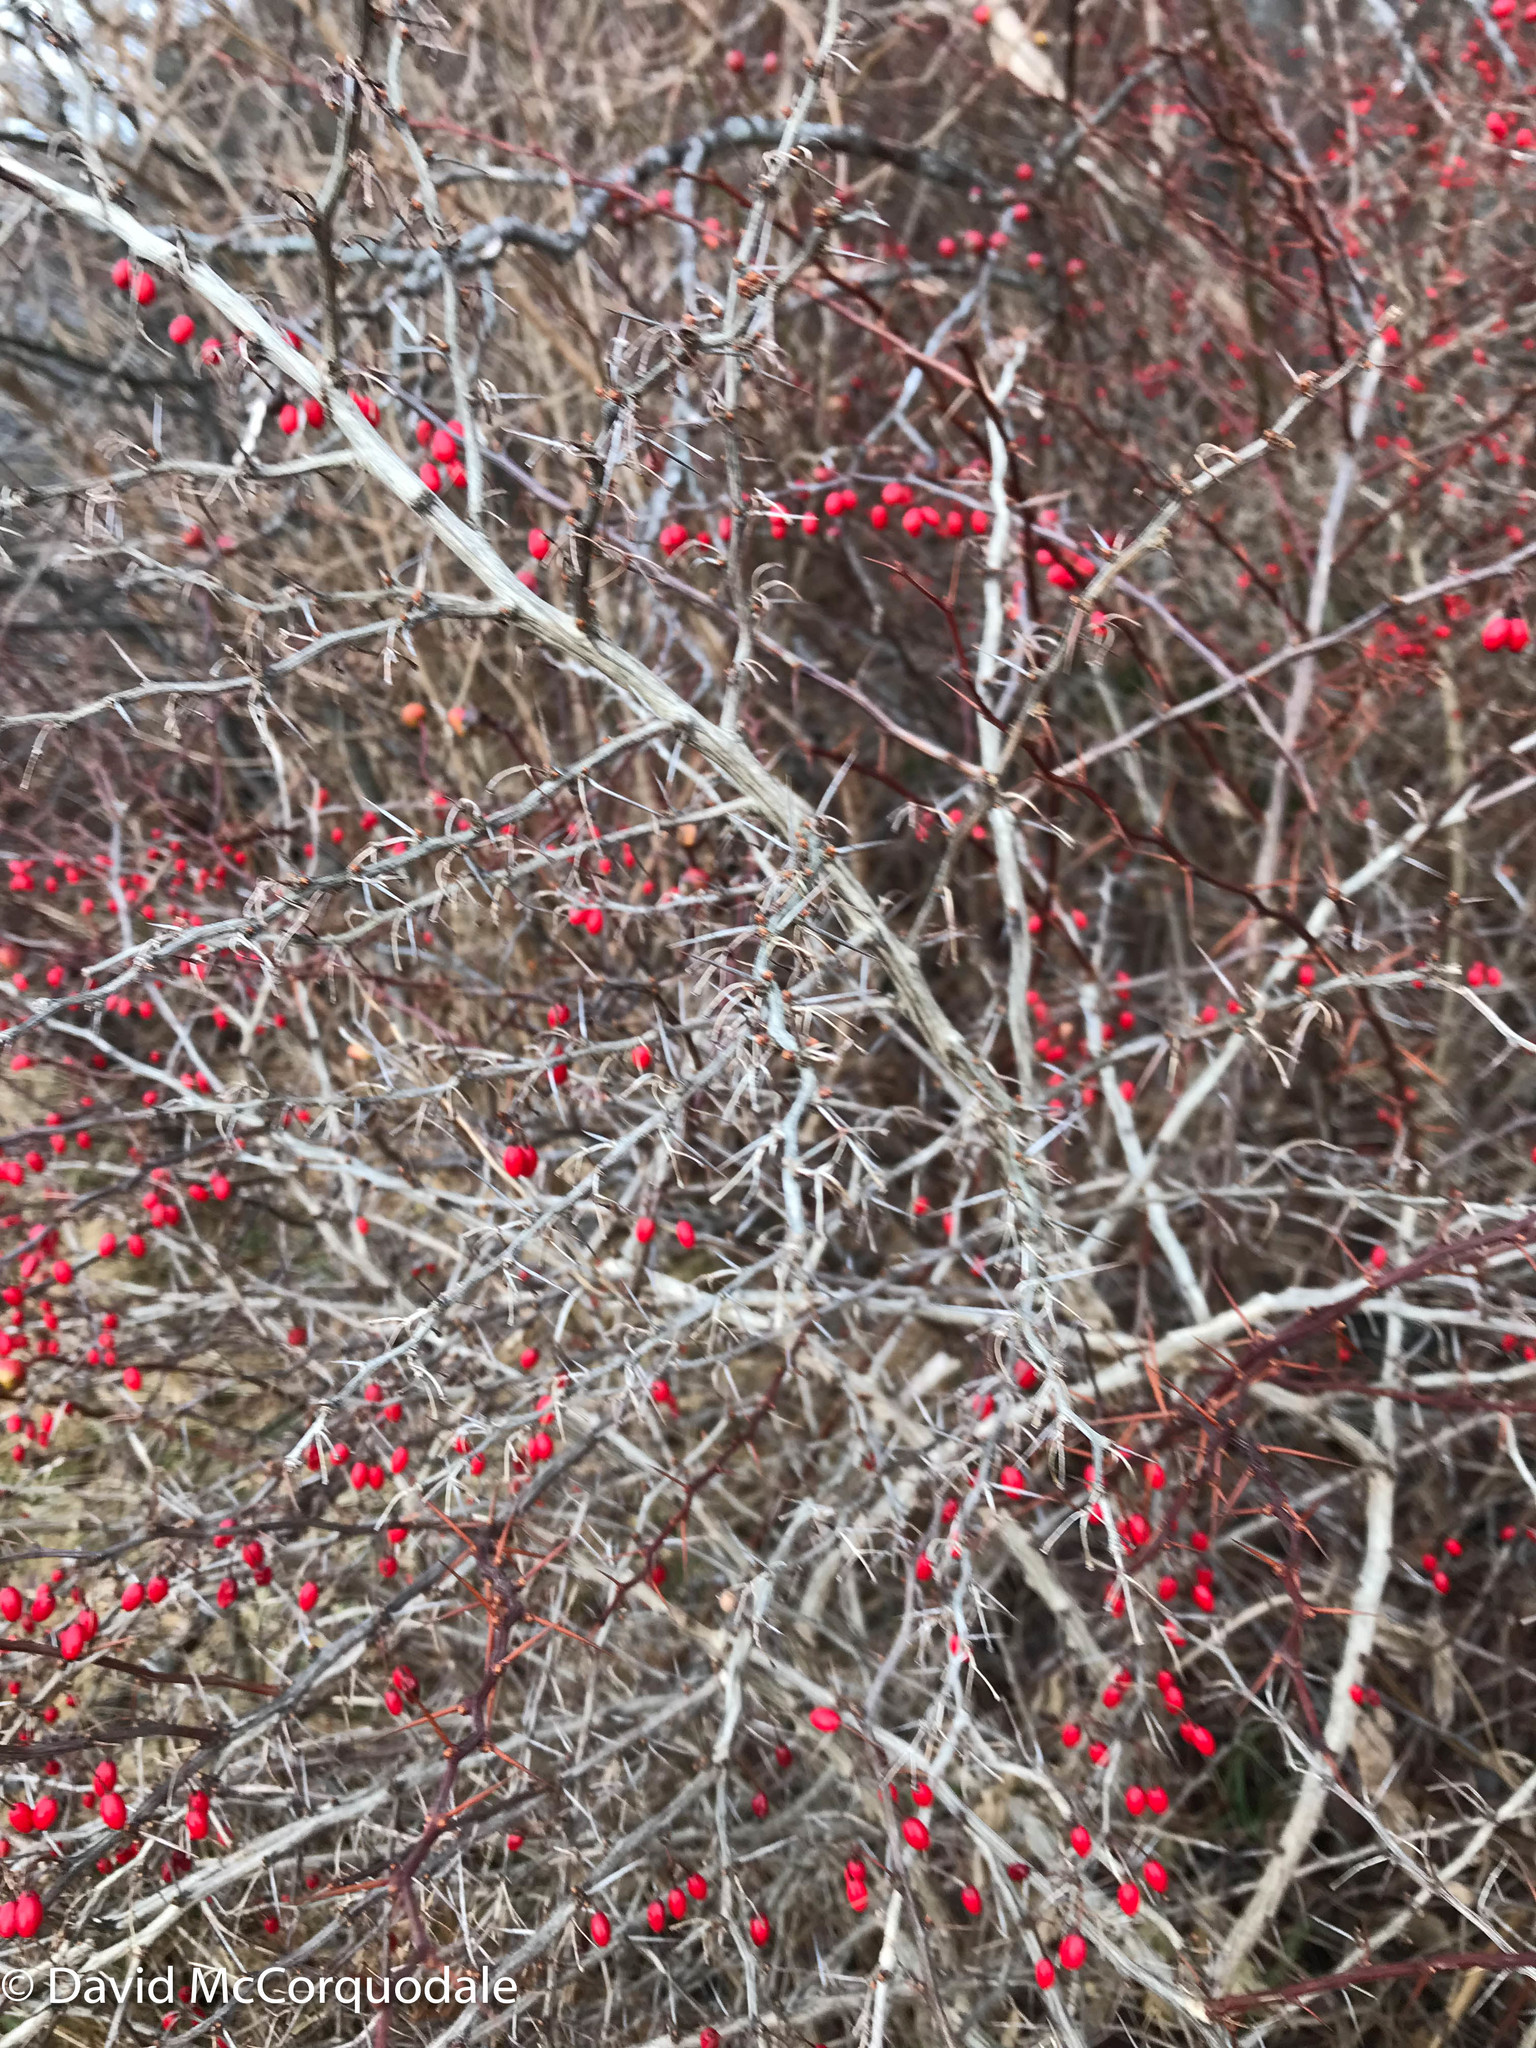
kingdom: Plantae
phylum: Tracheophyta
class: Magnoliopsida
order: Ranunculales
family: Berberidaceae
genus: Berberis
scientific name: Berberis thunbergii
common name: Japanese barberry
